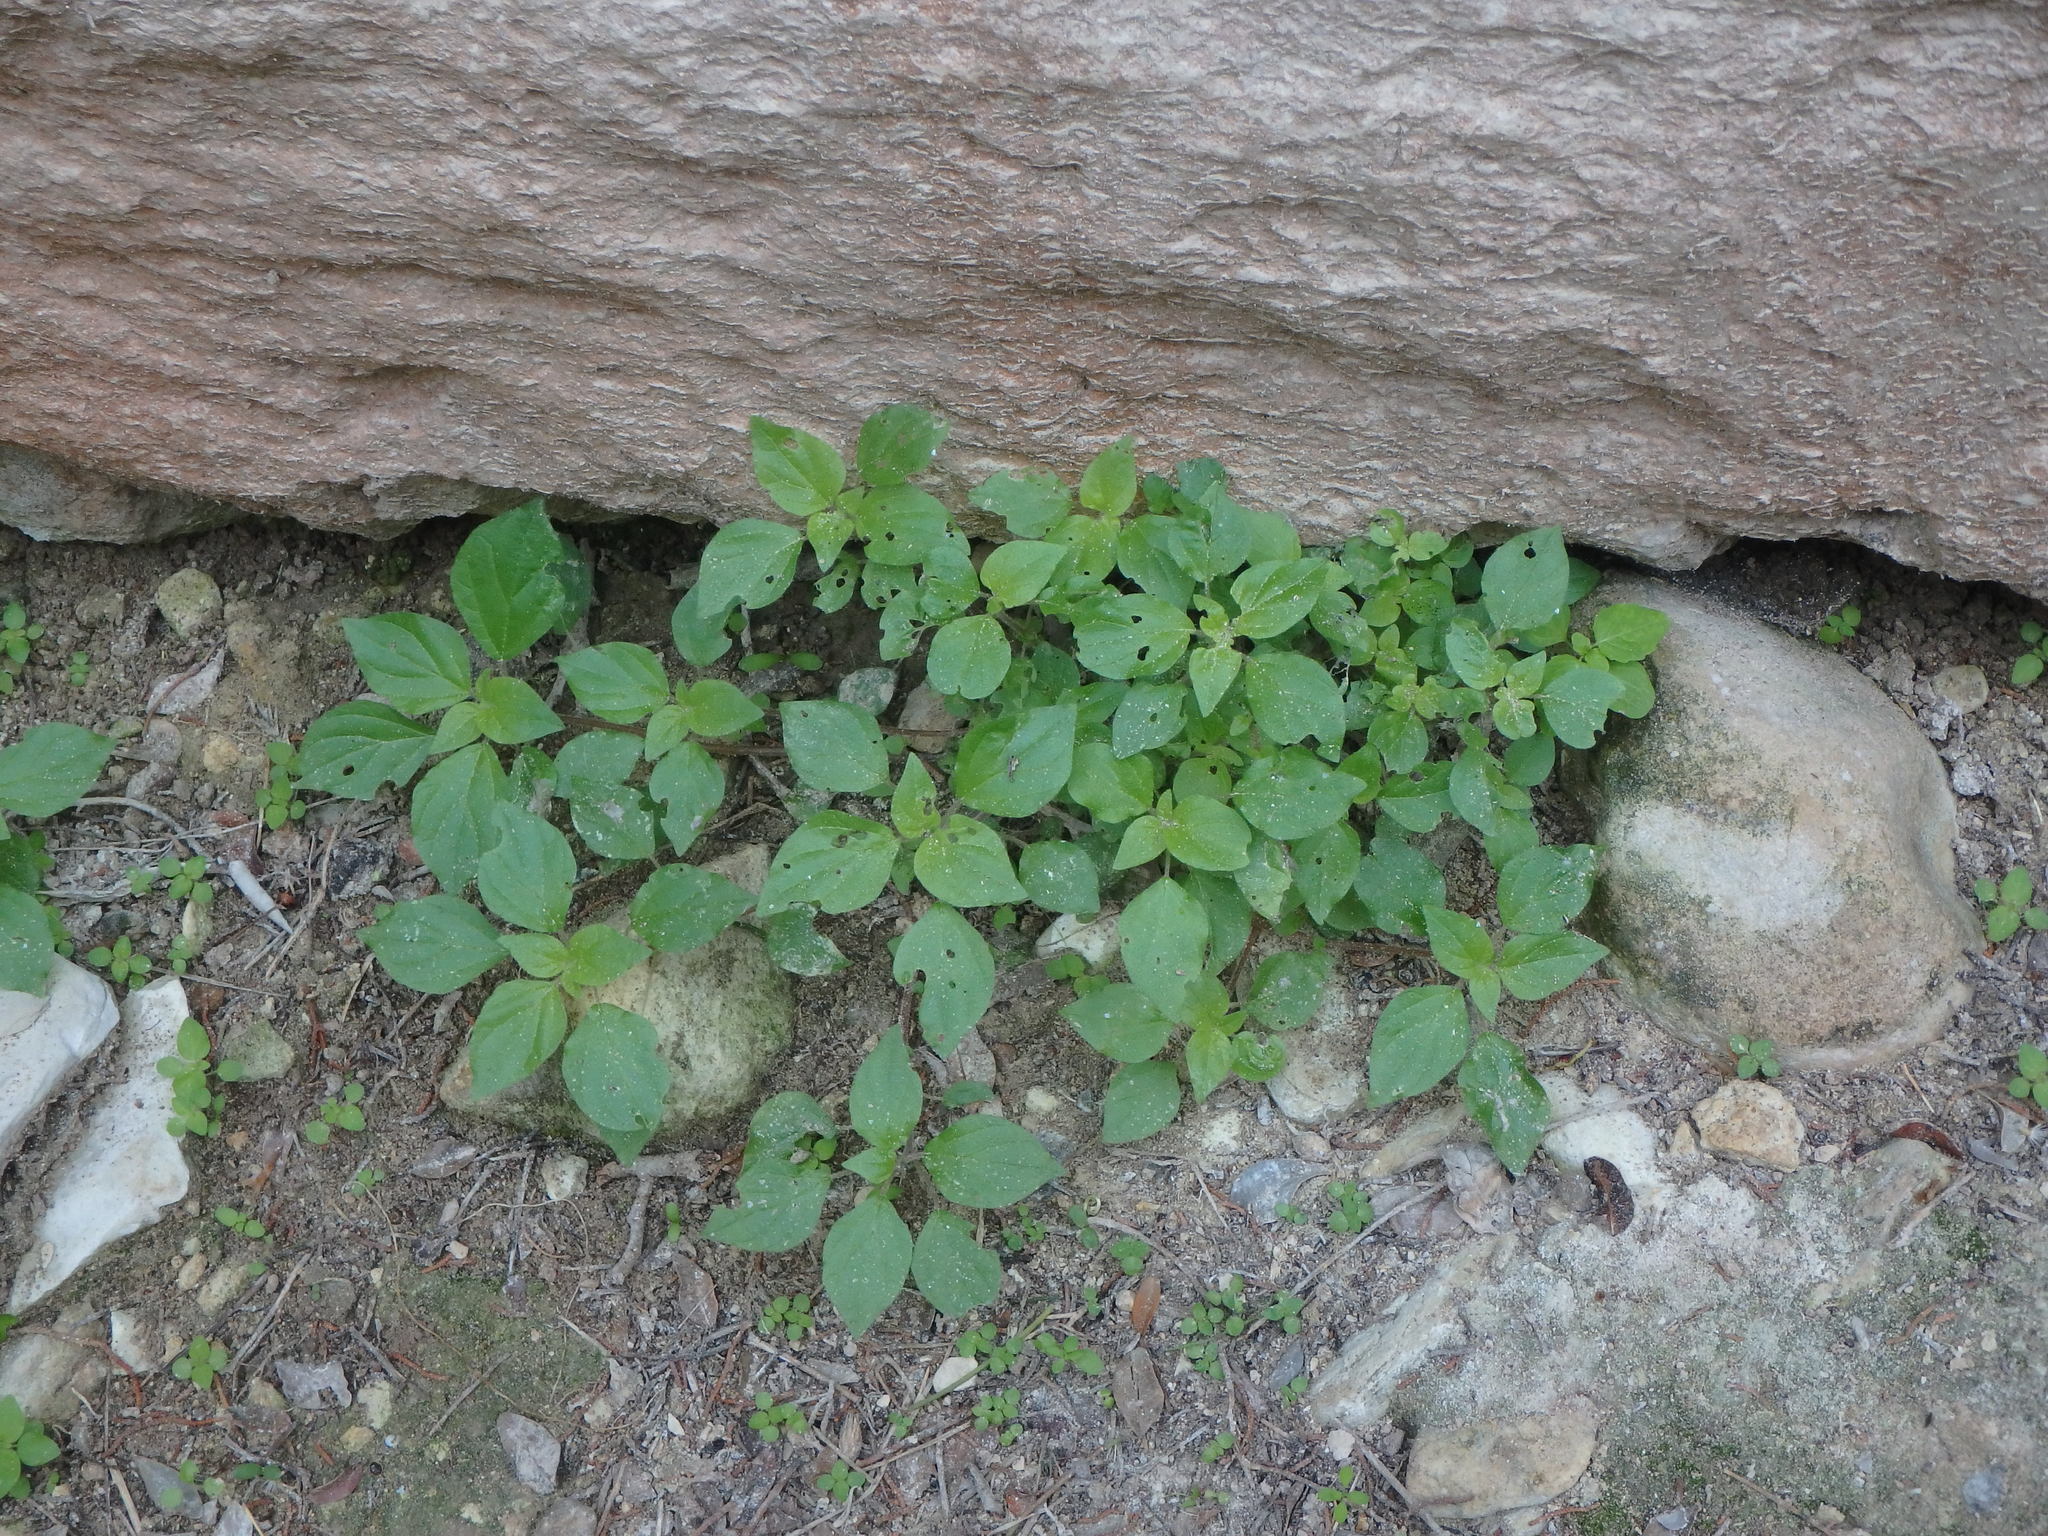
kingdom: Plantae
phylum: Tracheophyta
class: Magnoliopsida
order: Rosales
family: Urticaceae
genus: Parietaria
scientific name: Parietaria judaica
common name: Pellitory-of-the-wall
